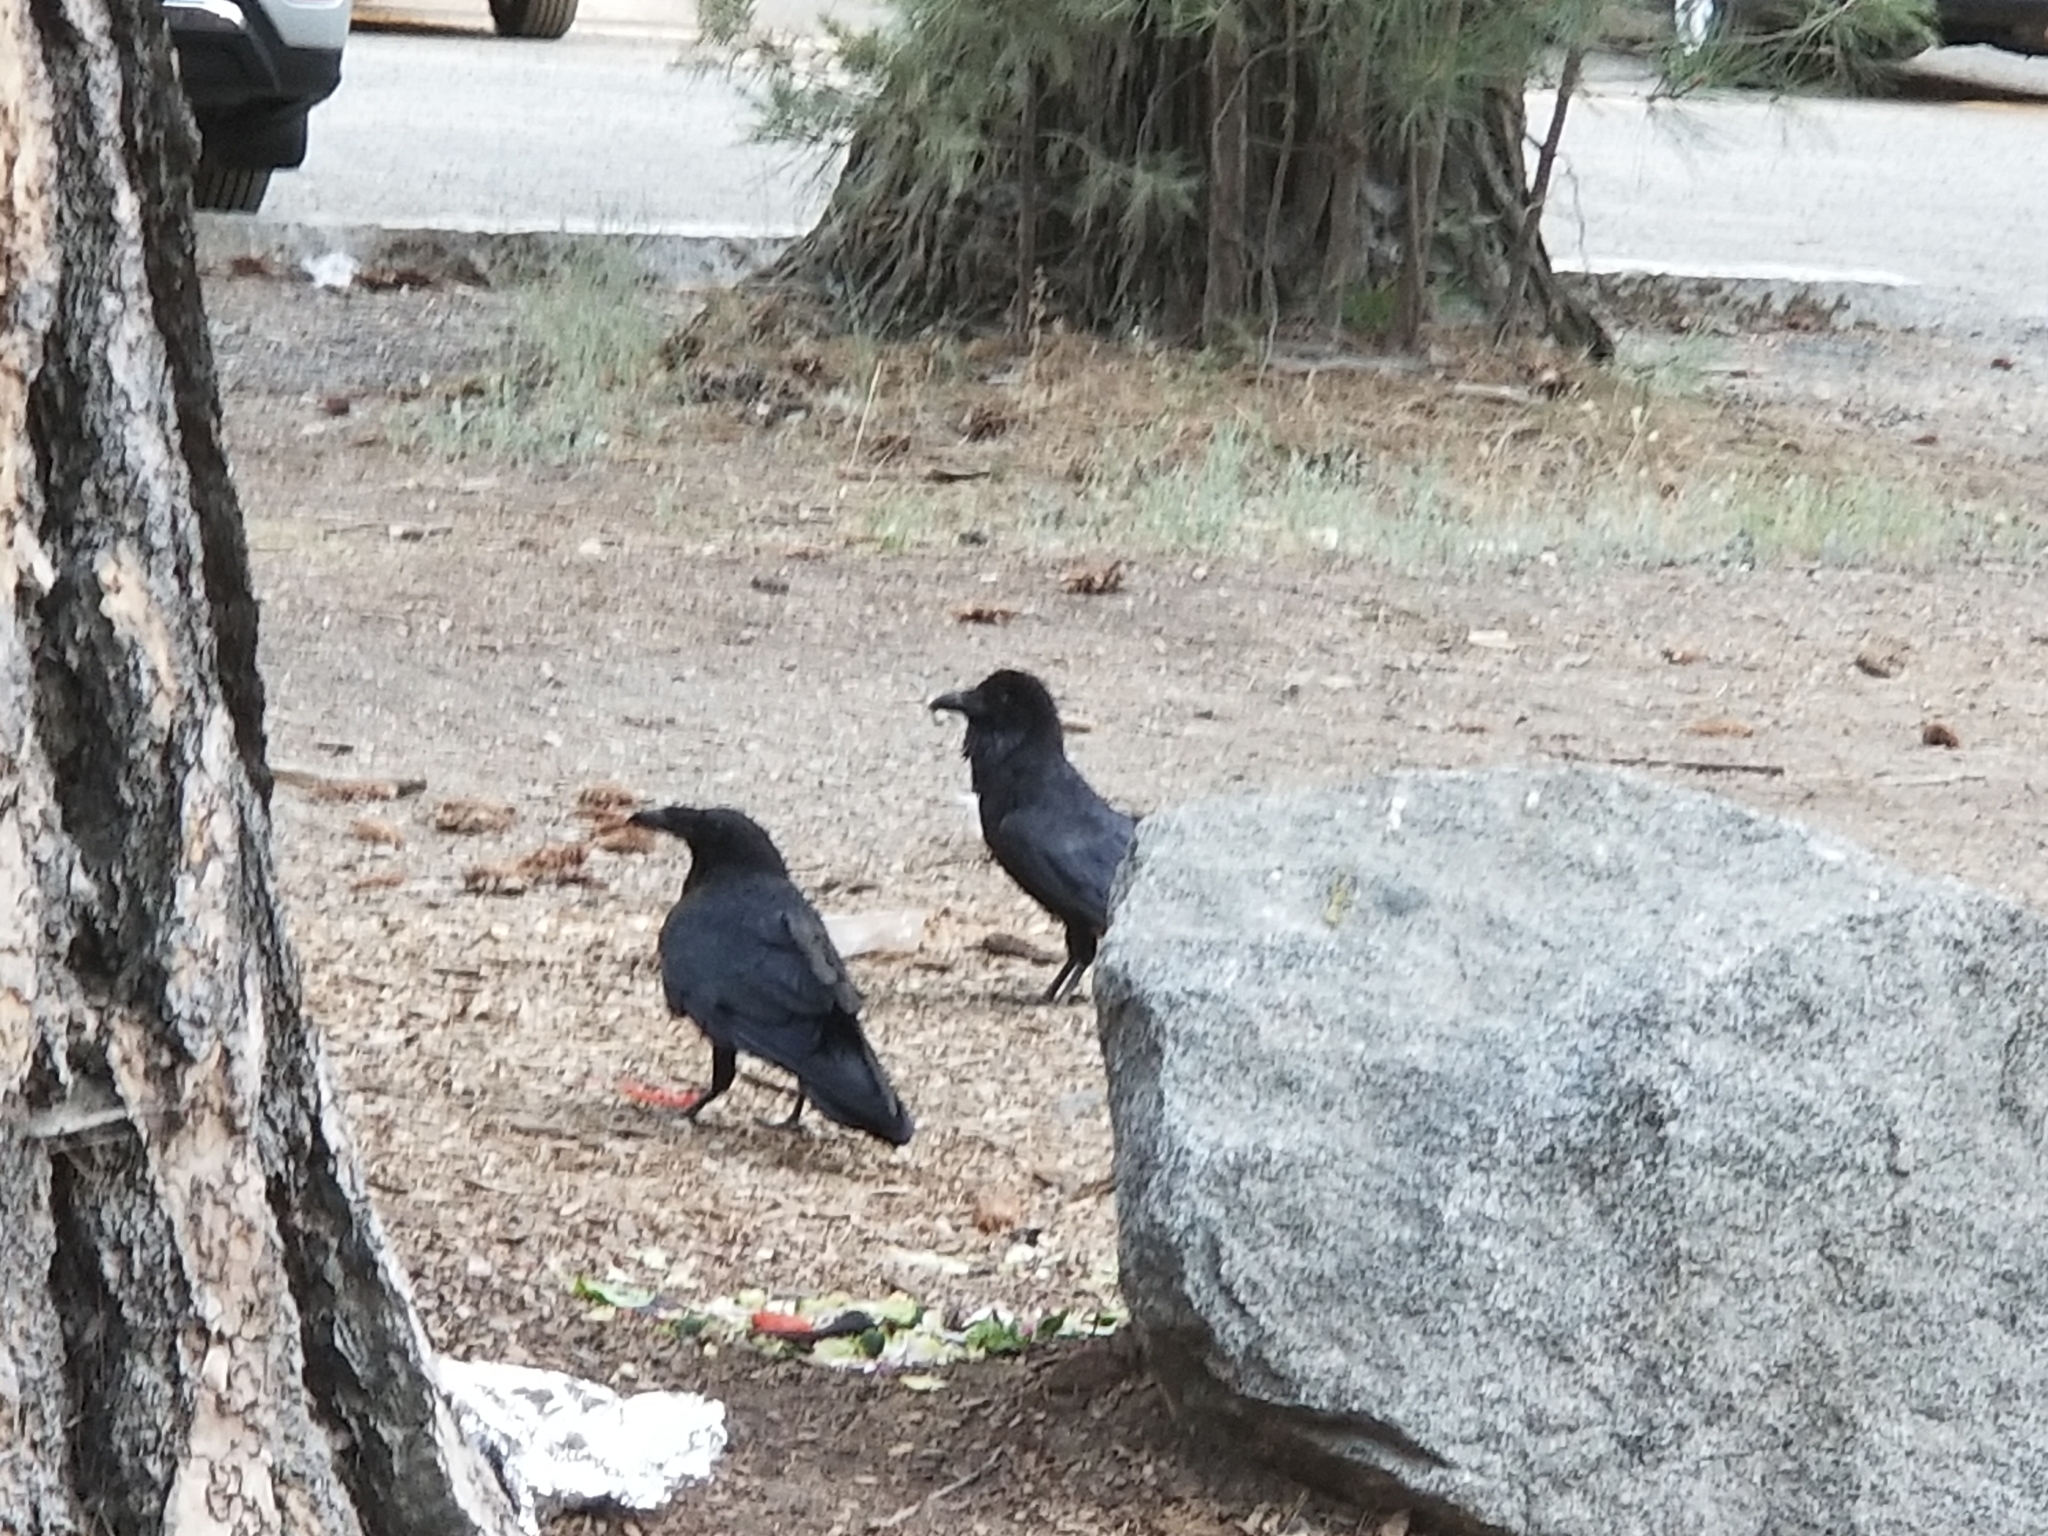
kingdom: Animalia
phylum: Chordata
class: Aves
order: Passeriformes
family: Corvidae
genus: Corvus
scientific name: Corvus corax
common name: Common raven
